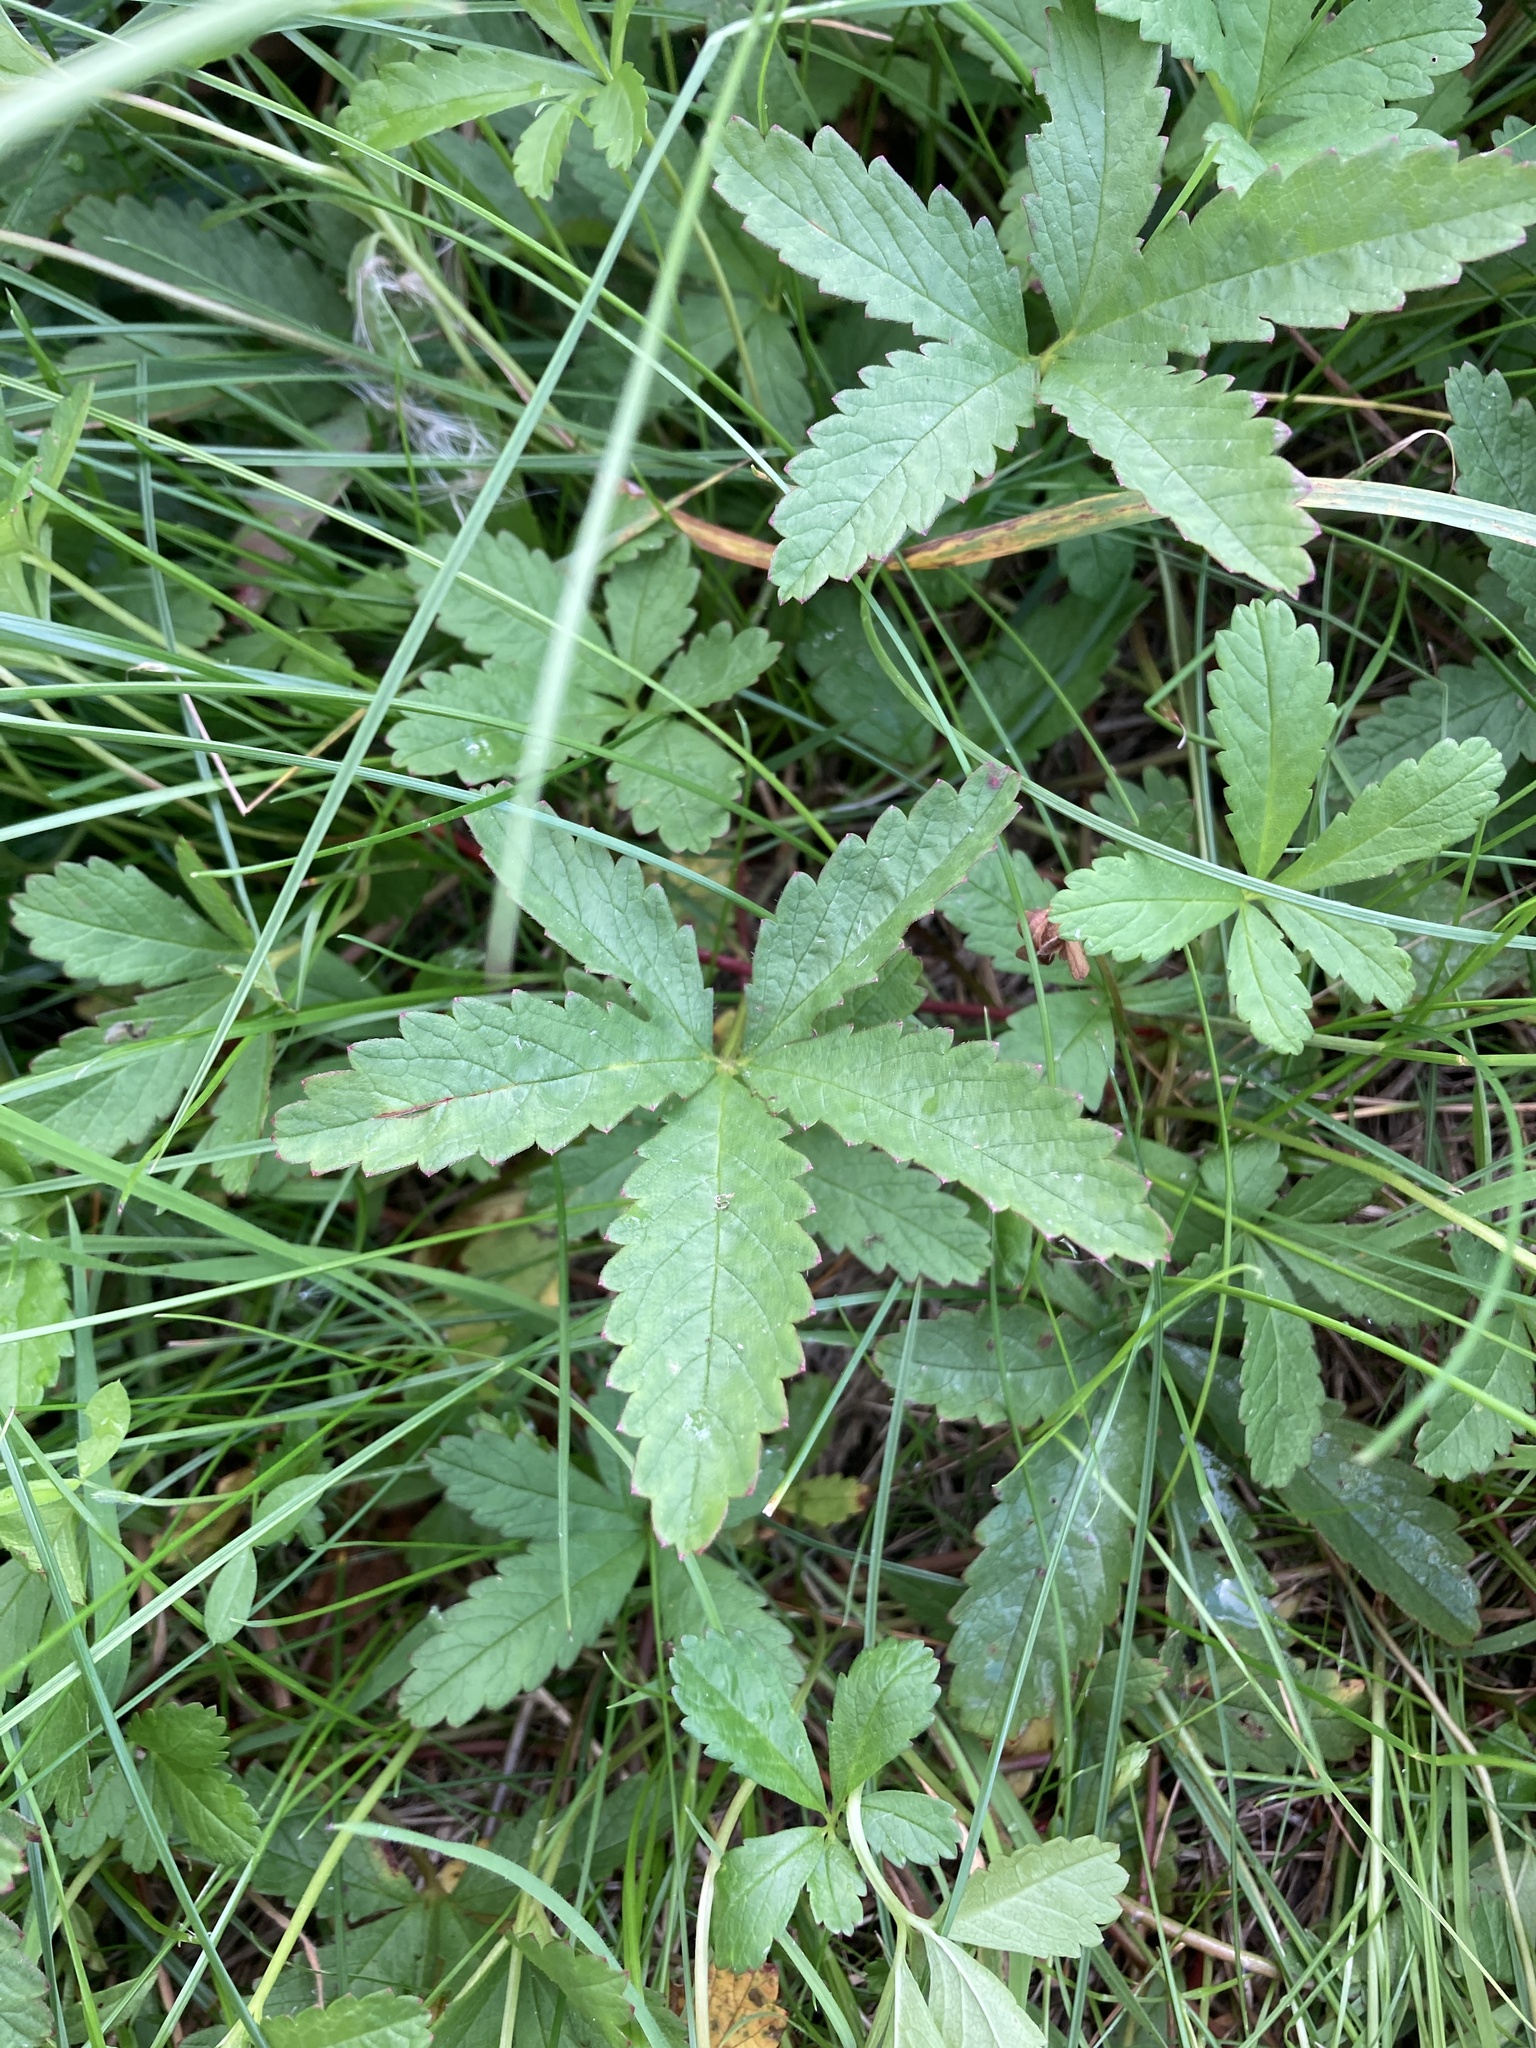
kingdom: Plantae
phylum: Tracheophyta
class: Magnoliopsida
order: Rosales
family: Rosaceae
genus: Potentilla
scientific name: Potentilla reptans
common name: Creeping cinquefoil
